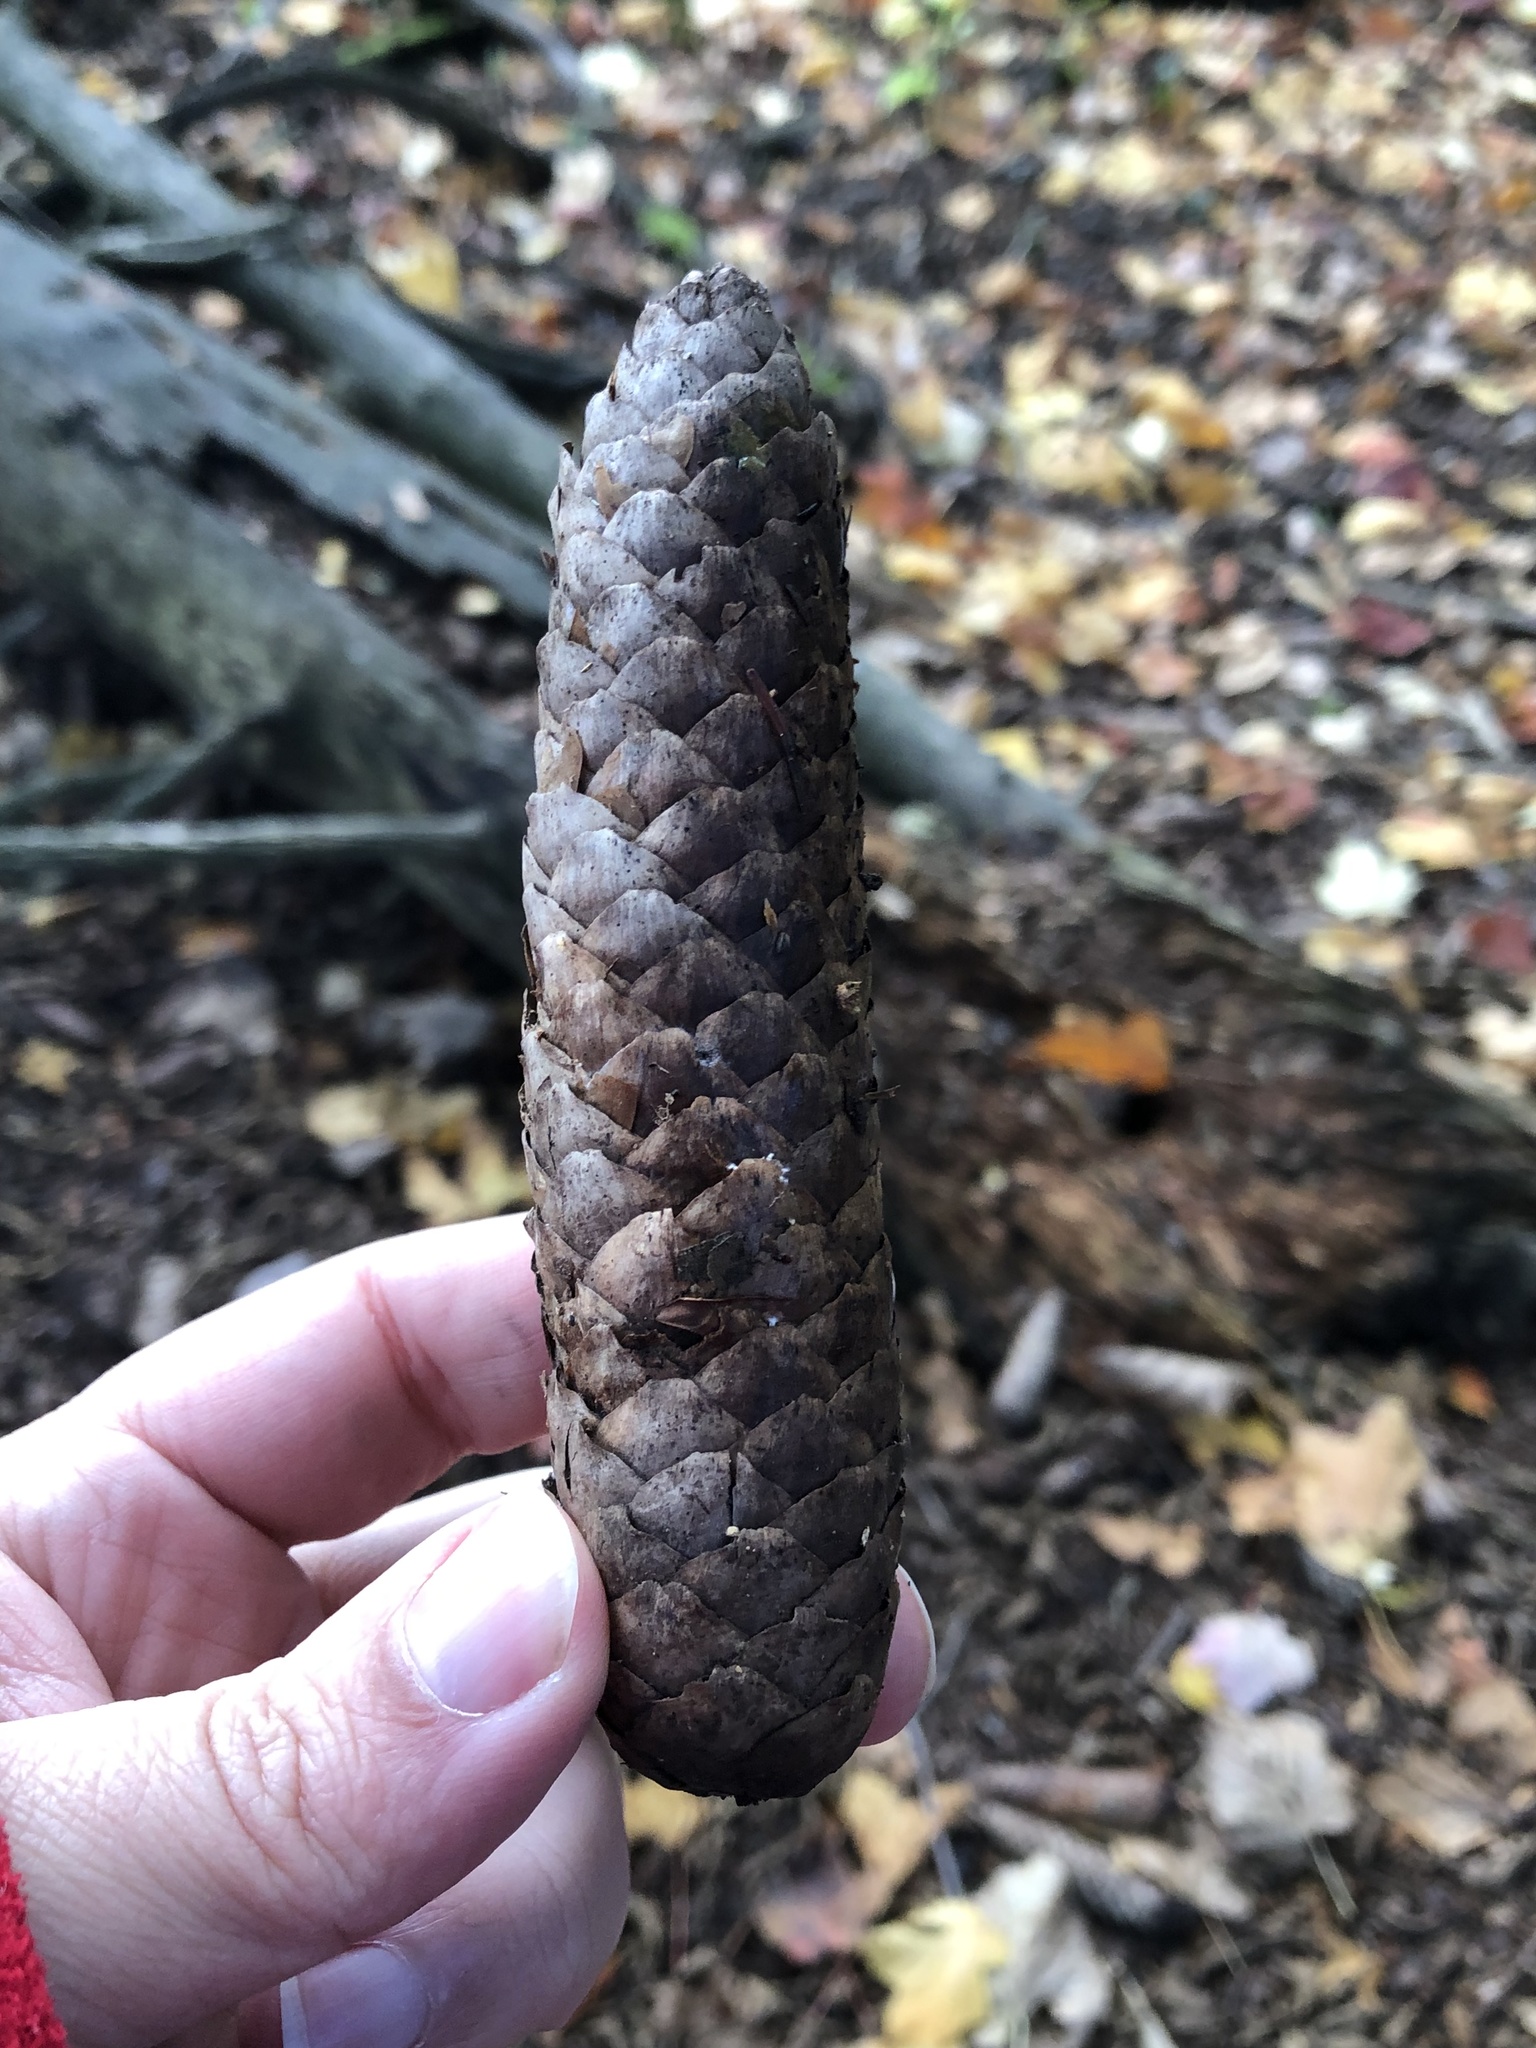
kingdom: Plantae
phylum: Tracheophyta
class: Pinopsida
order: Pinales
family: Pinaceae
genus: Picea
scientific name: Picea abies
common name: Norway spruce
